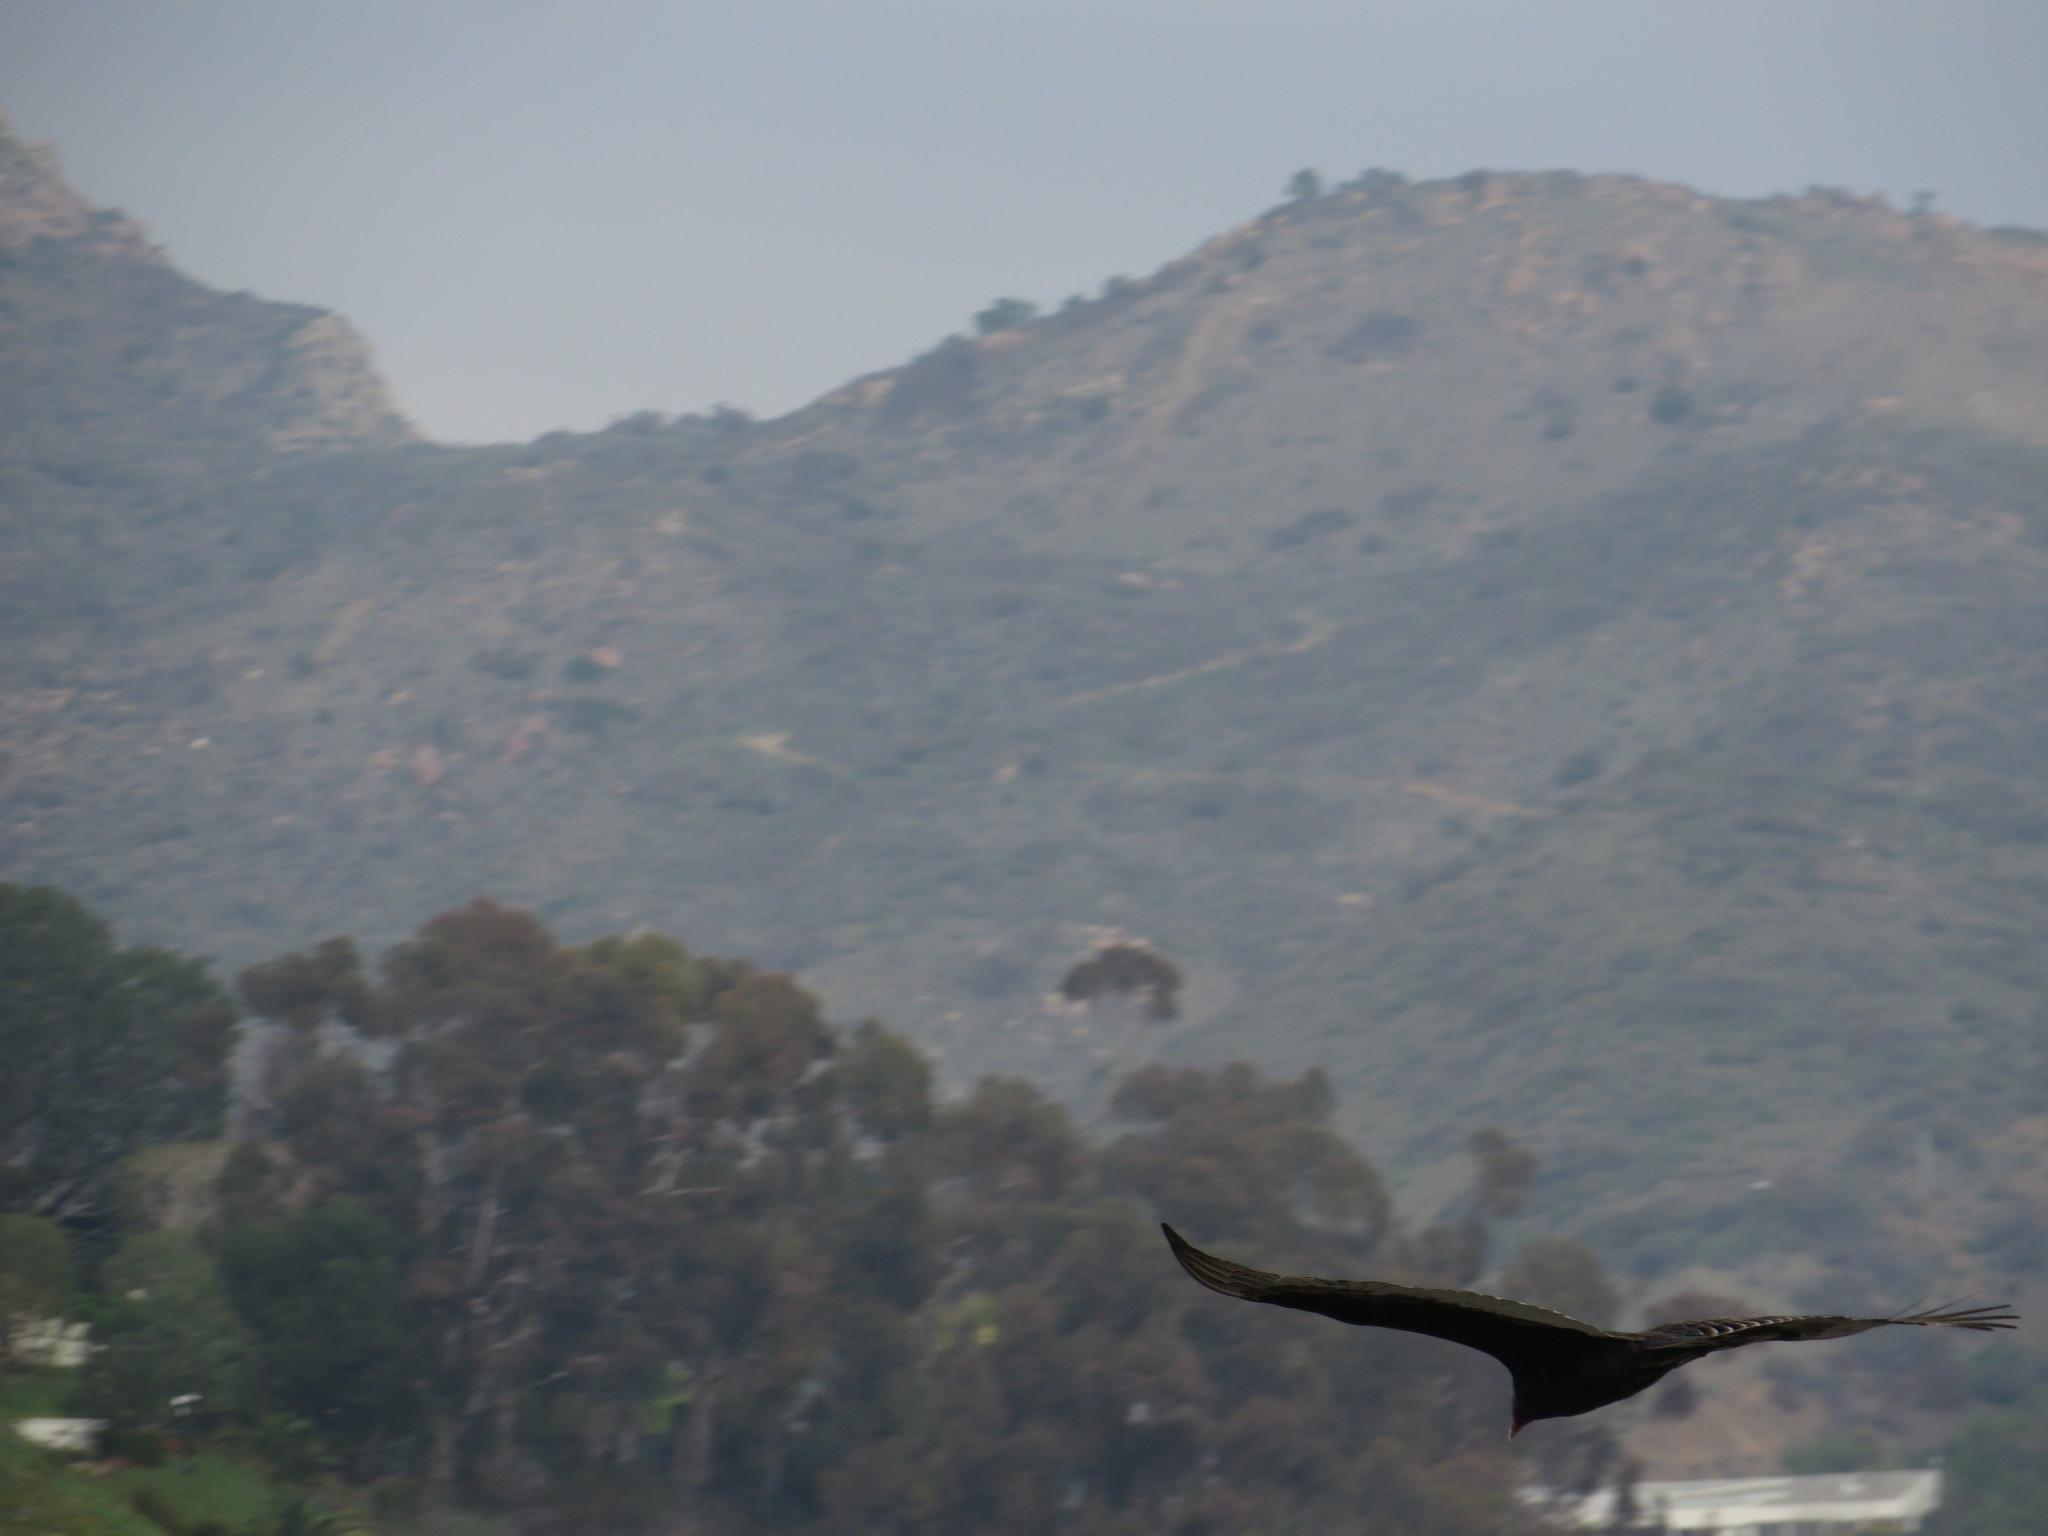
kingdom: Animalia
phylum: Chordata
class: Aves
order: Accipitriformes
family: Cathartidae
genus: Cathartes
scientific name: Cathartes aura
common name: Turkey vulture
